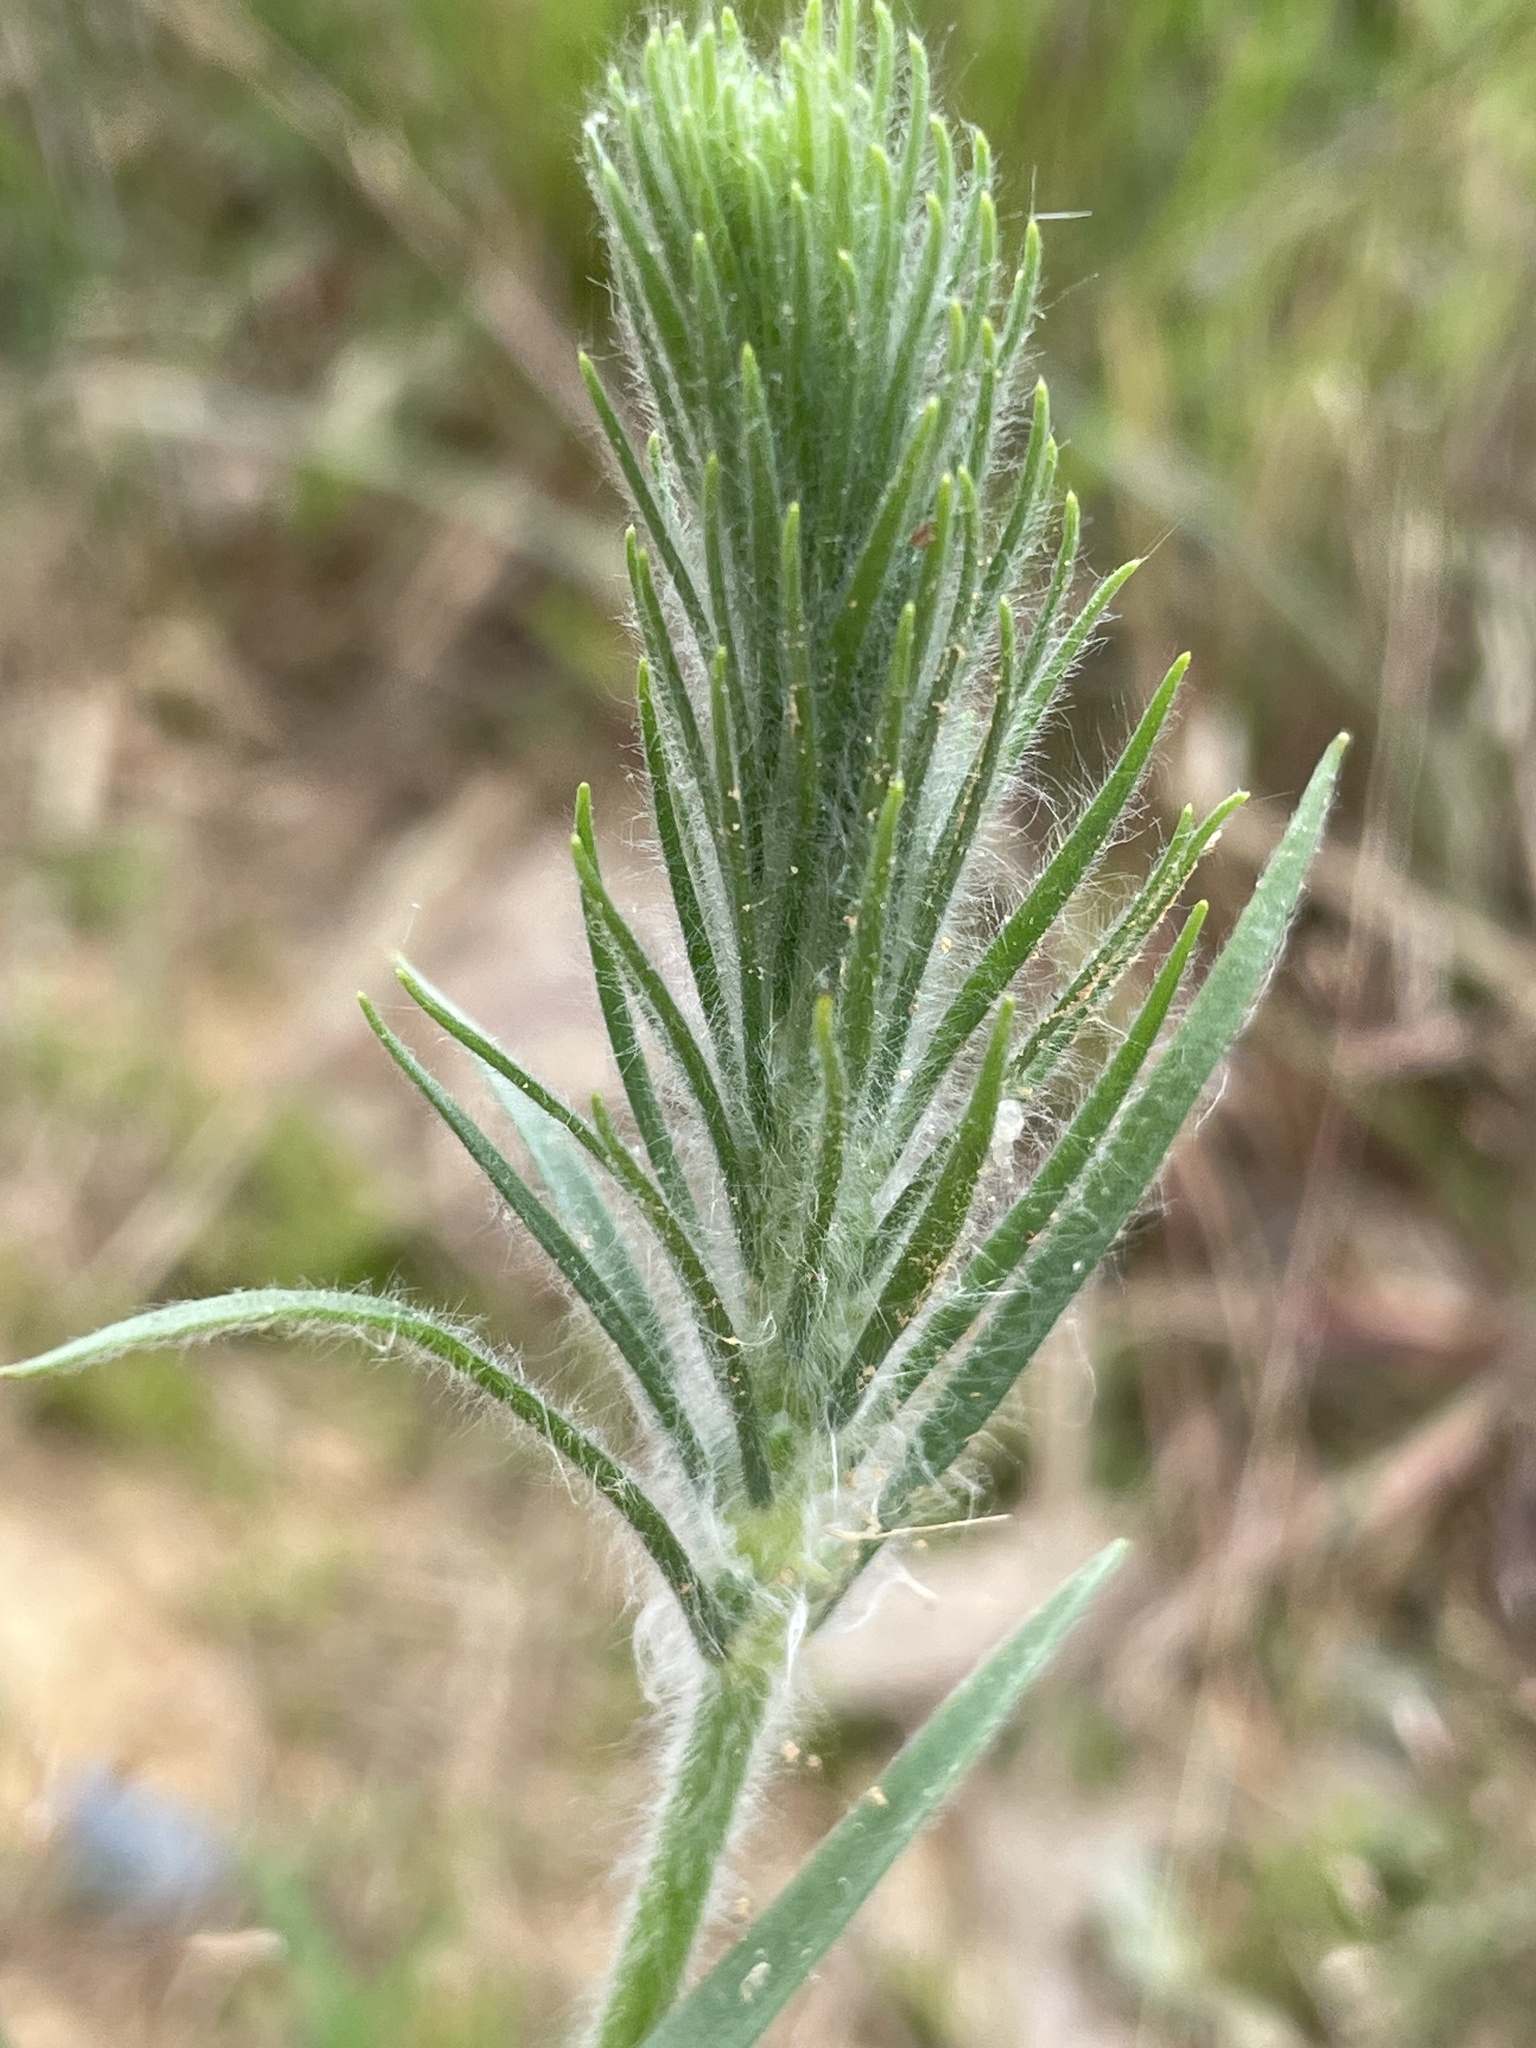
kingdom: Plantae
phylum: Tracheophyta
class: Magnoliopsida
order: Lamiales
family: Plantaginaceae
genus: Plantago
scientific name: Plantago aristata
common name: Bracted plantain
